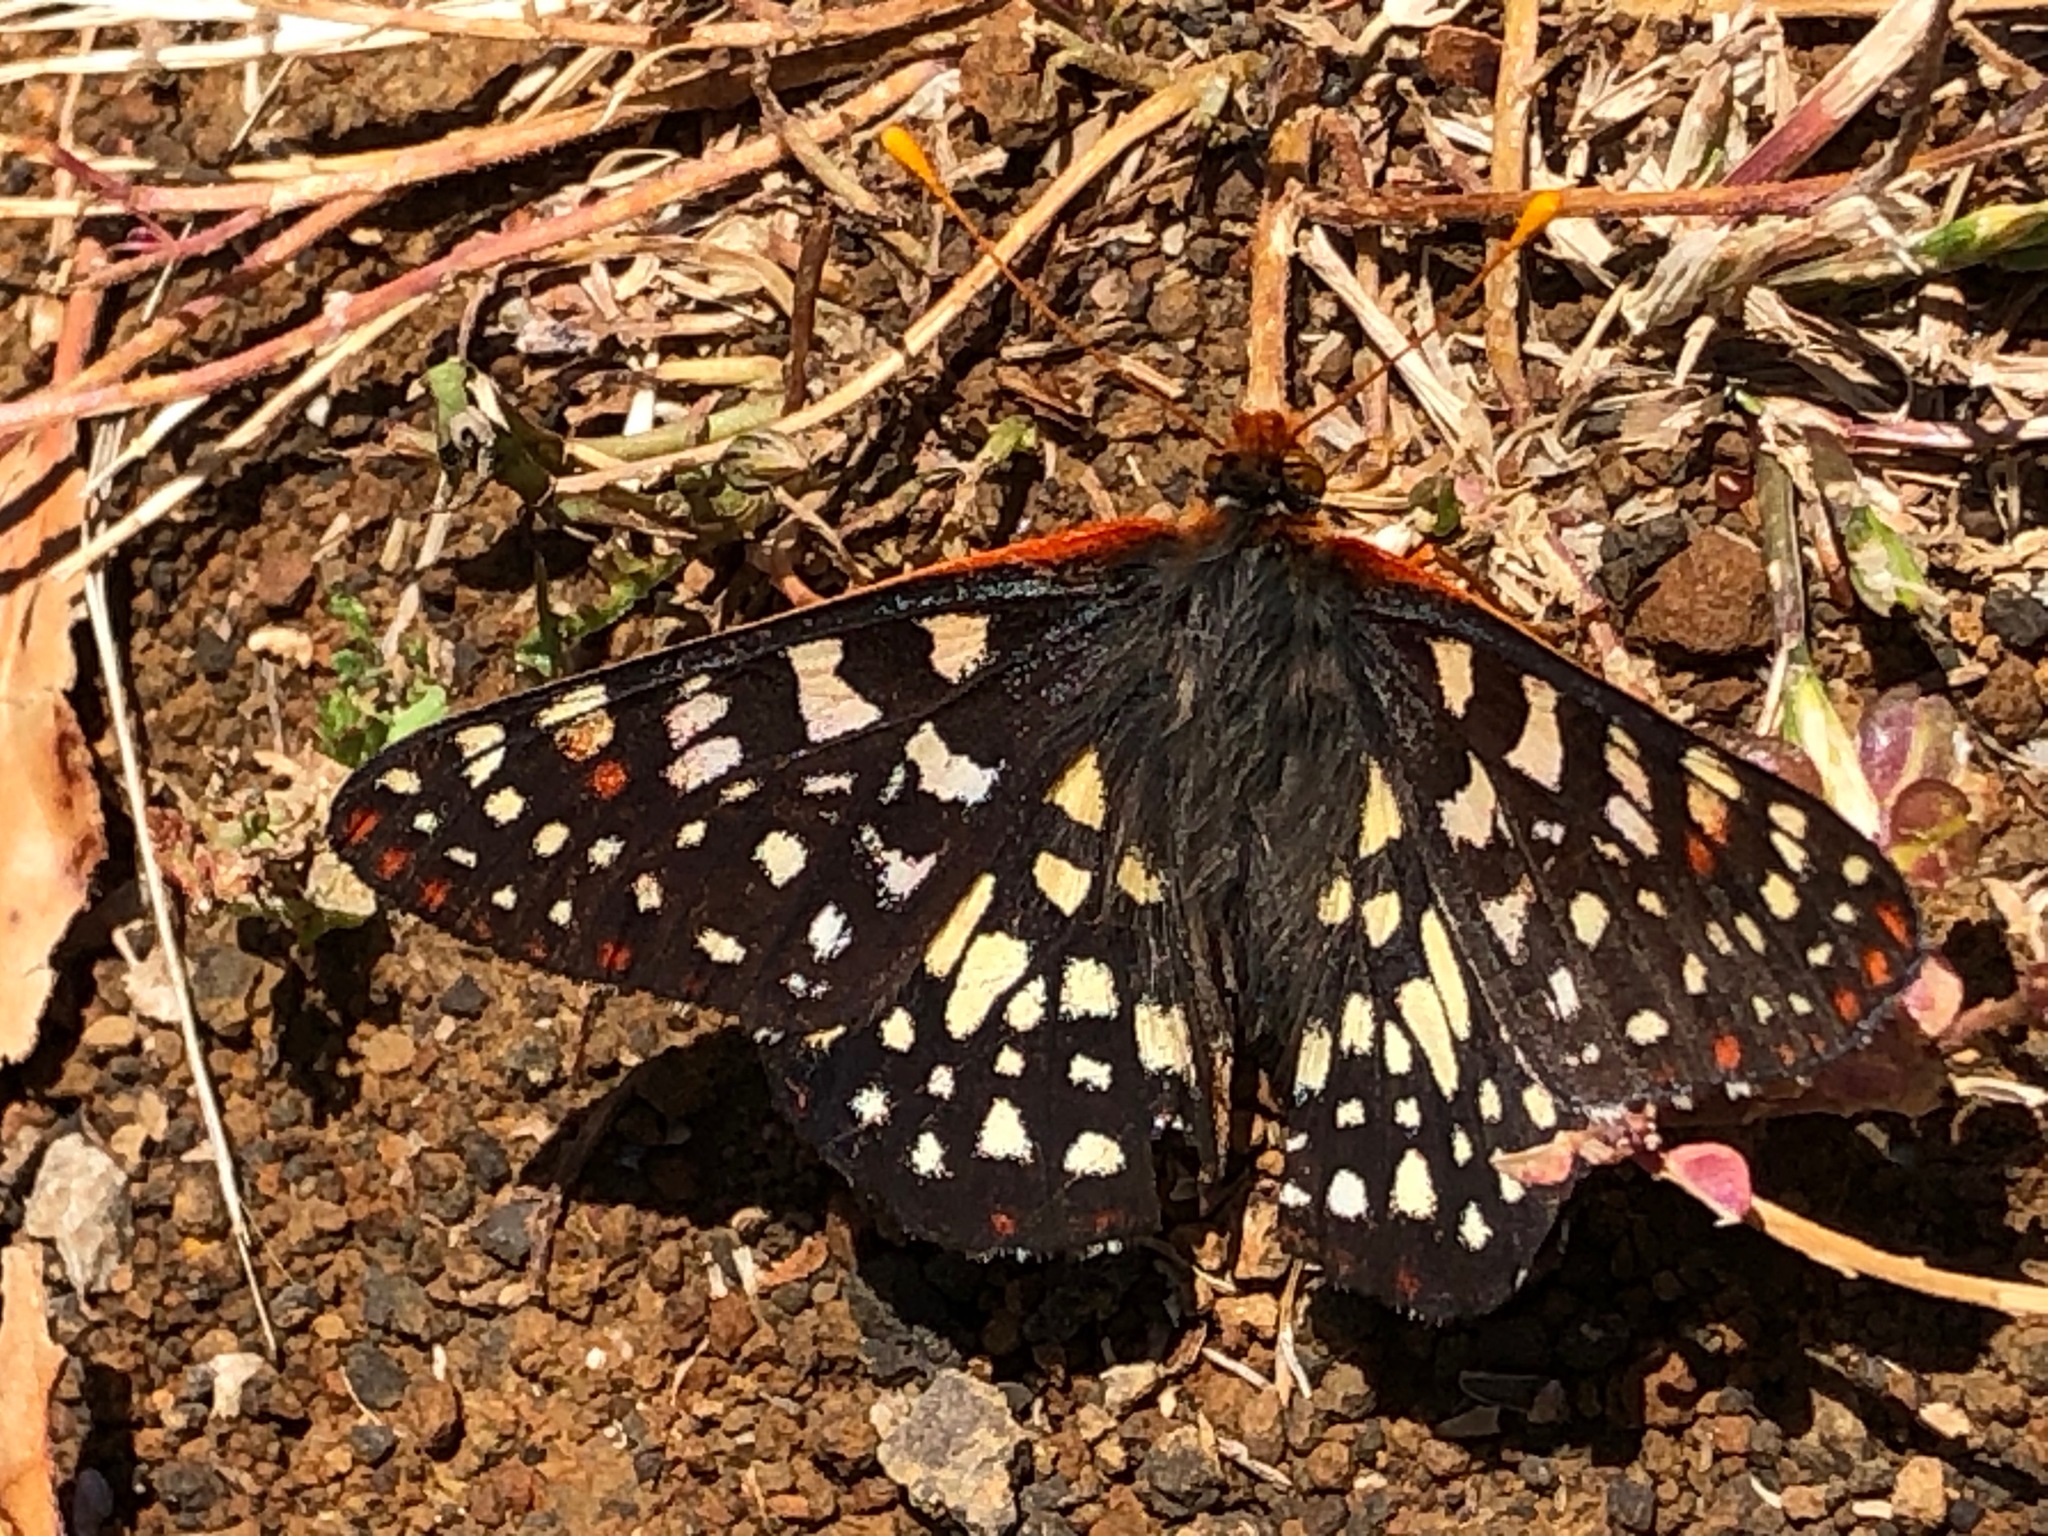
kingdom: Animalia
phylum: Arthropoda
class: Insecta
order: Lepidoptera
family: Nymphalidae
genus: Occidryas
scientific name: Occidryas chalcedona
